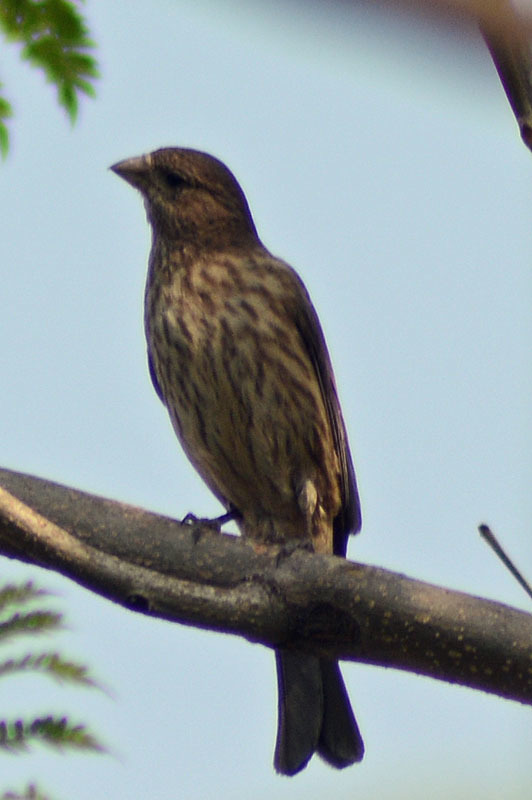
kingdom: Animalia
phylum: Chordata
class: Aves
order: Passeriformes
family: Fringillidae
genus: Haemorhous
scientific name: Haemorhous mexicanus
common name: House finch
